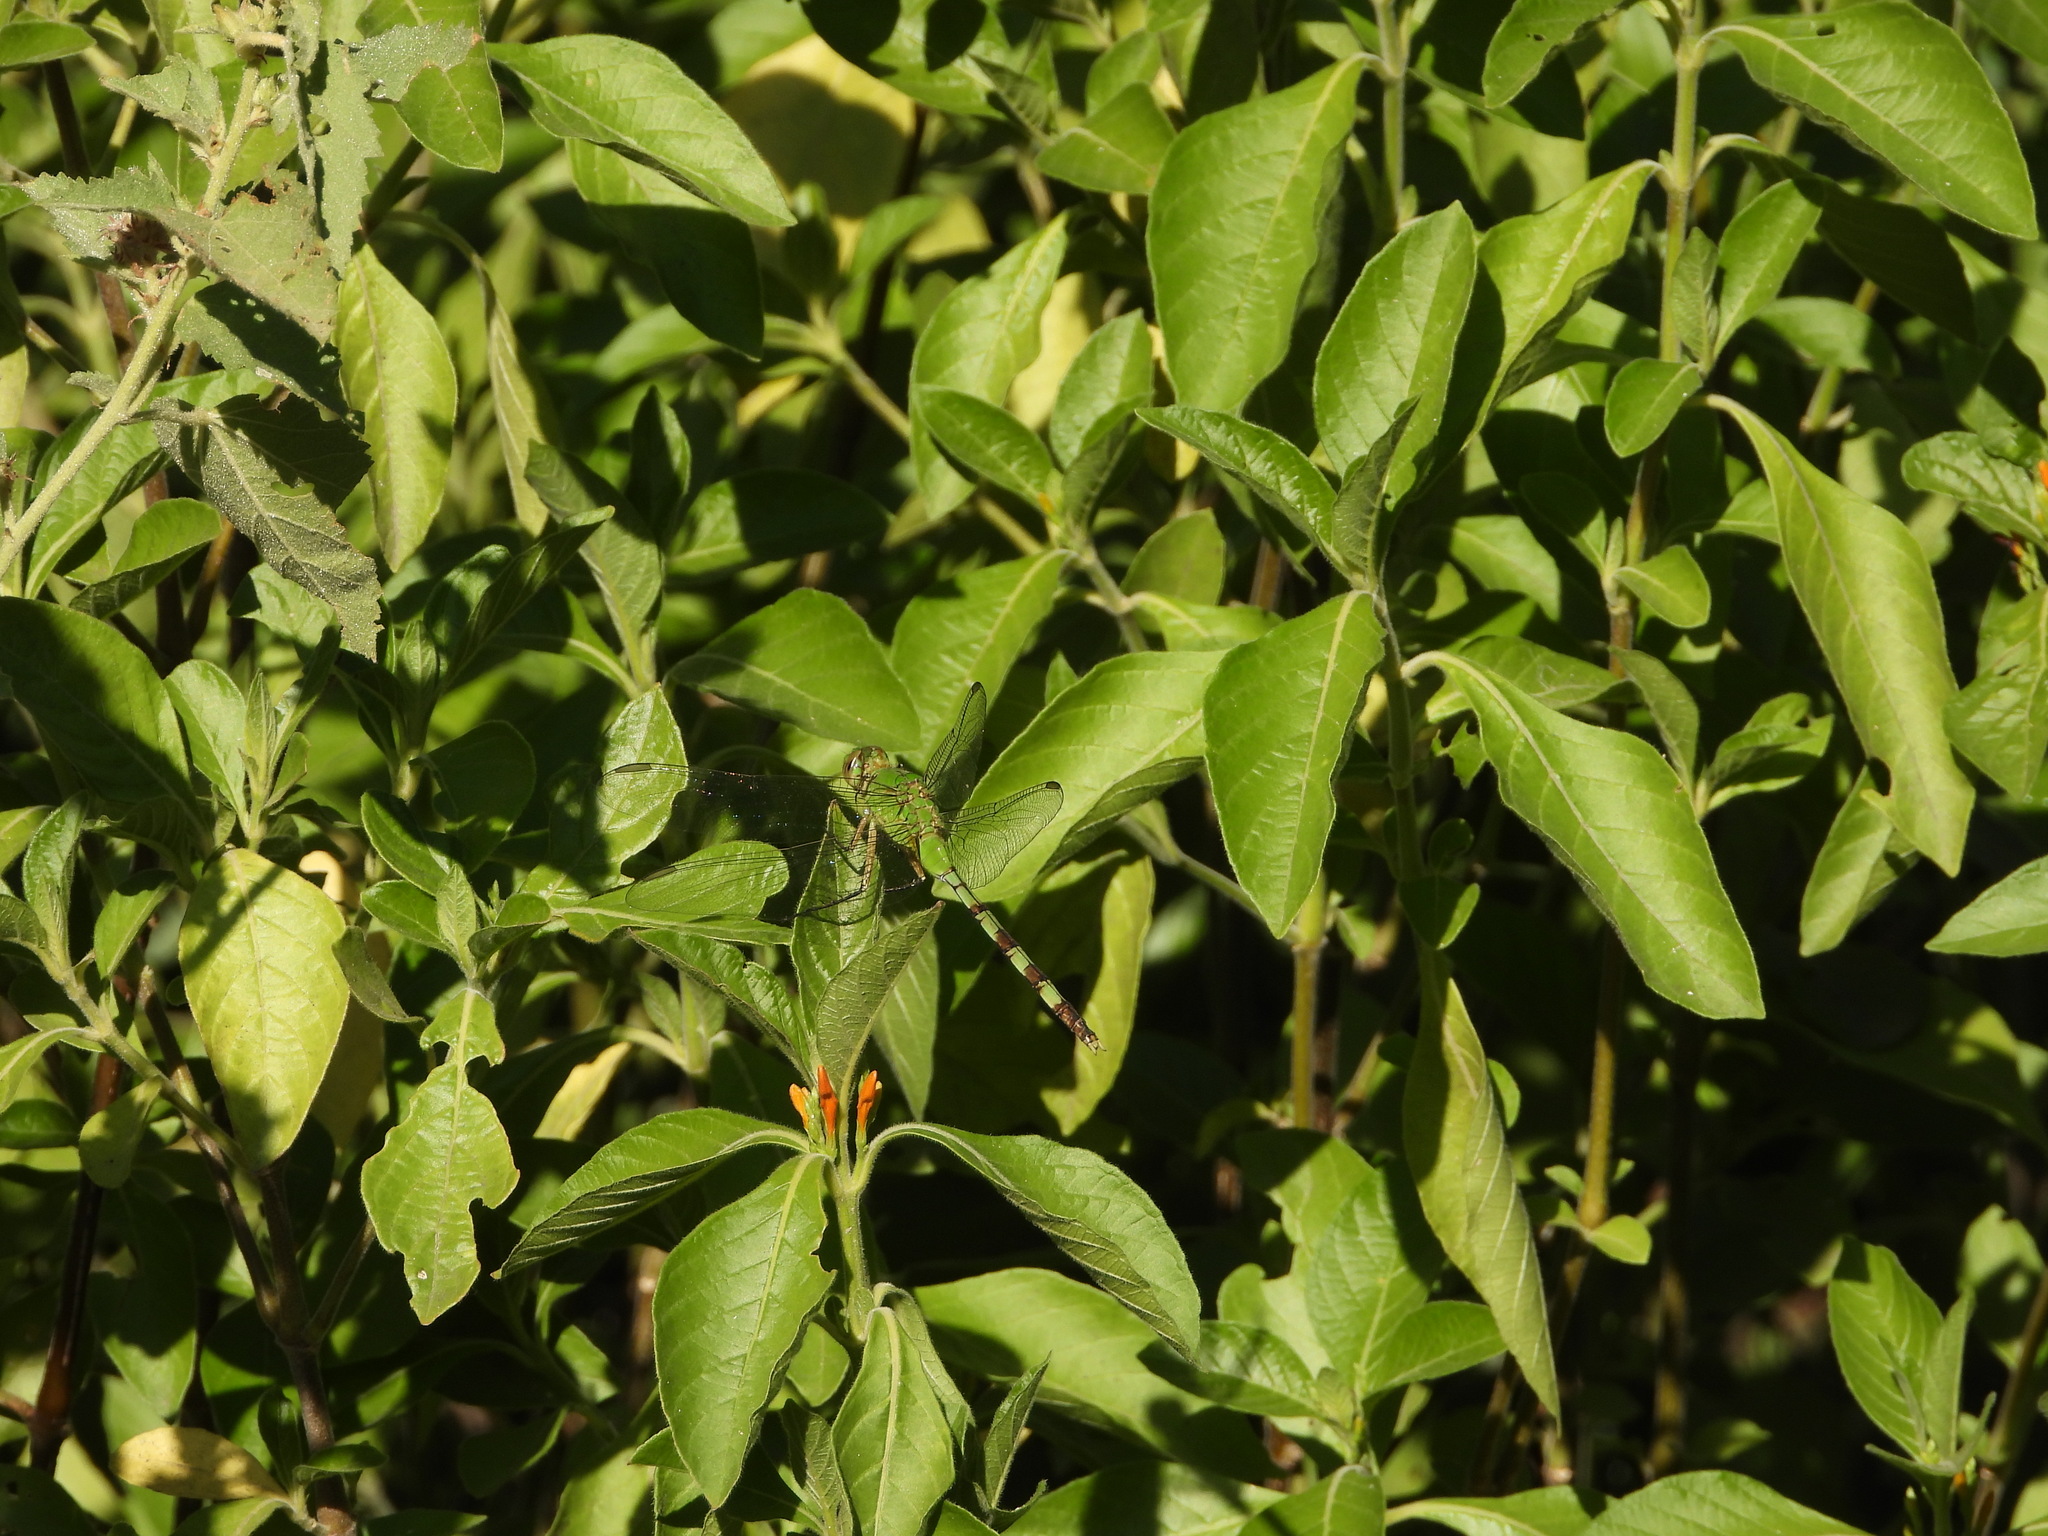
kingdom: Animalia
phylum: Arthropoda
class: Insecta
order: Odonata
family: Libellulidae
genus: Erythemis
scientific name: Erythemis vesiculosa
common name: Great pondhawk
